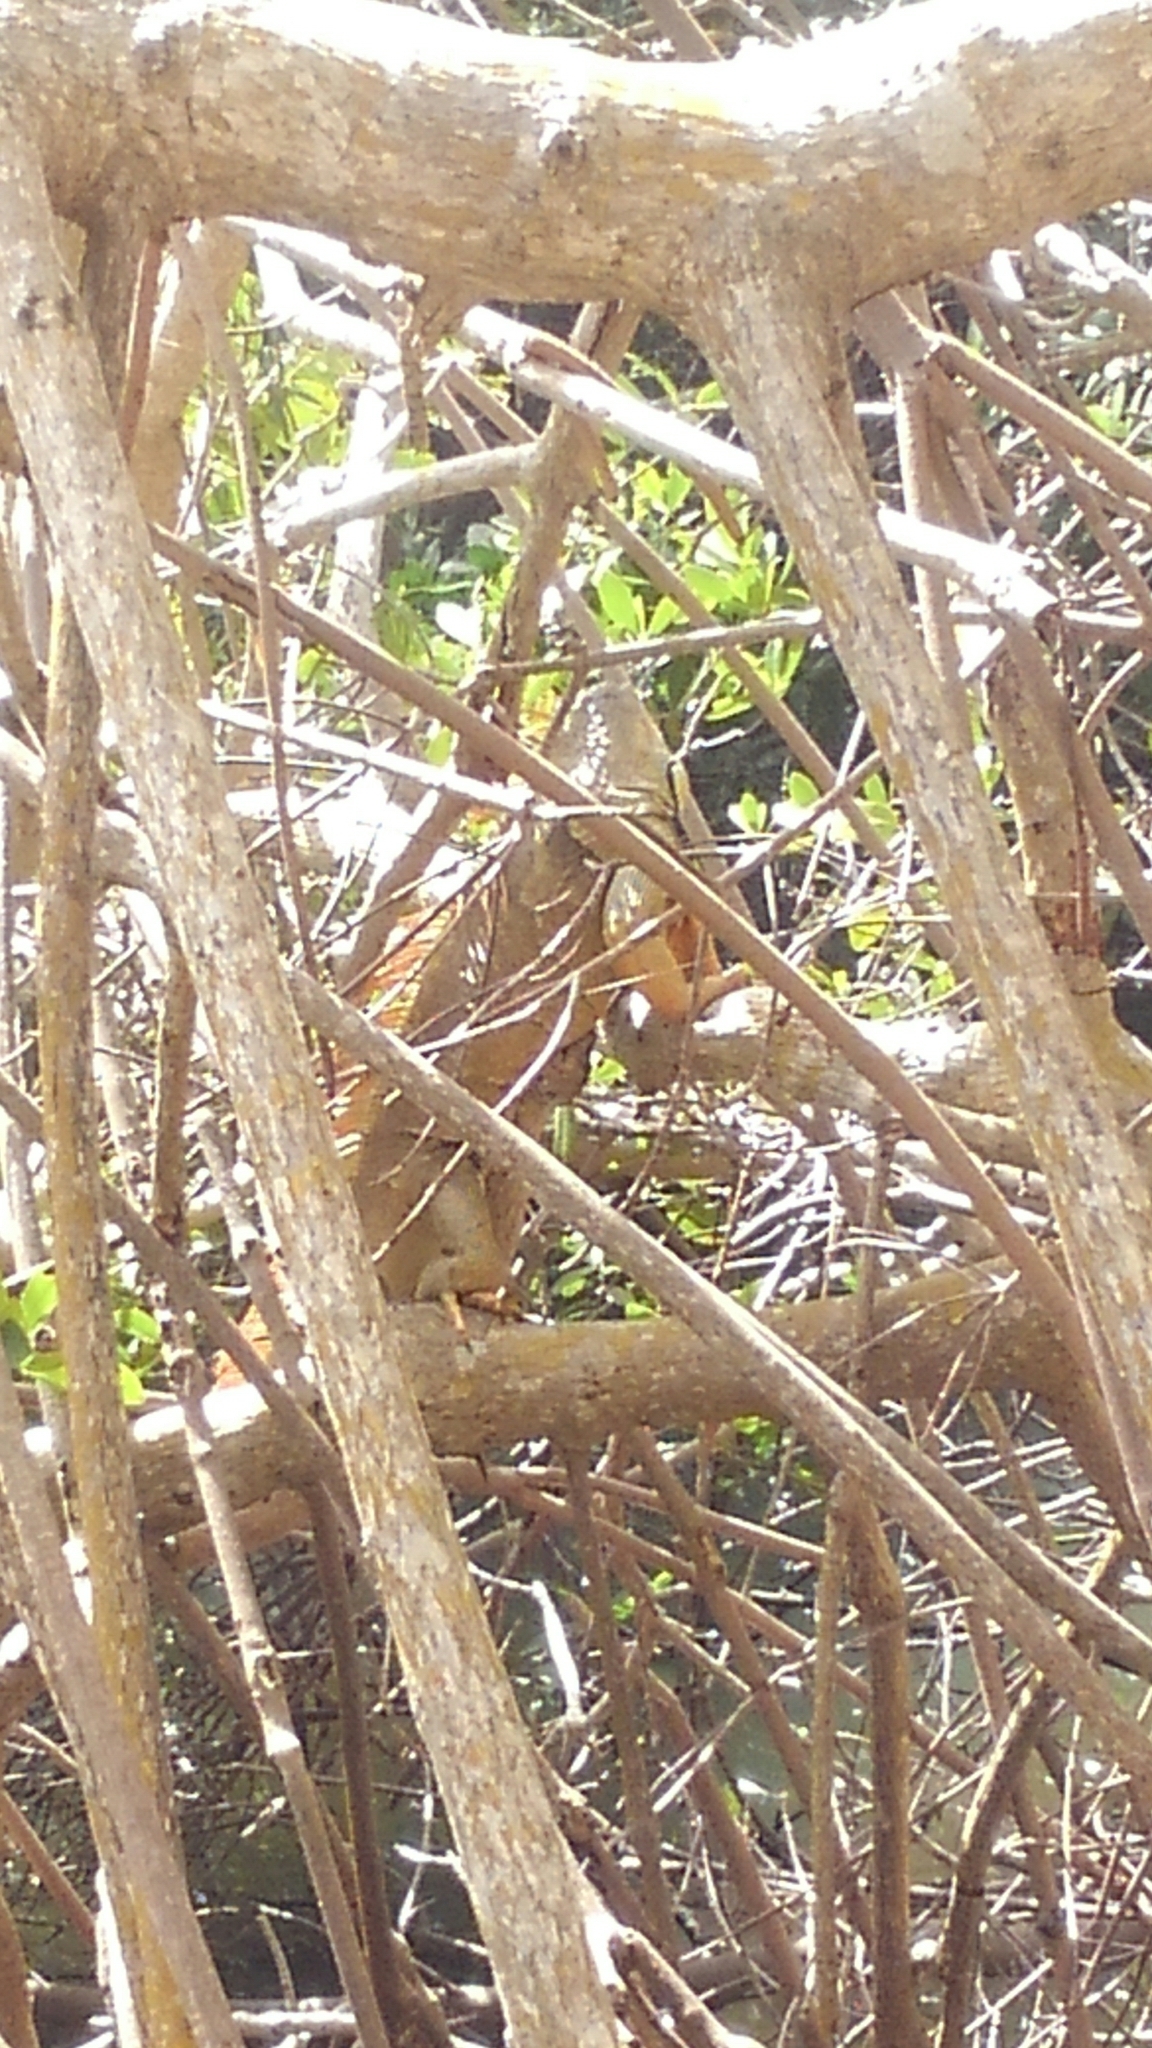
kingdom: Animalia
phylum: Chordata
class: Squamata
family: Iguanidae
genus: Iguana
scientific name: Iguana iguana
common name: Green iguana
